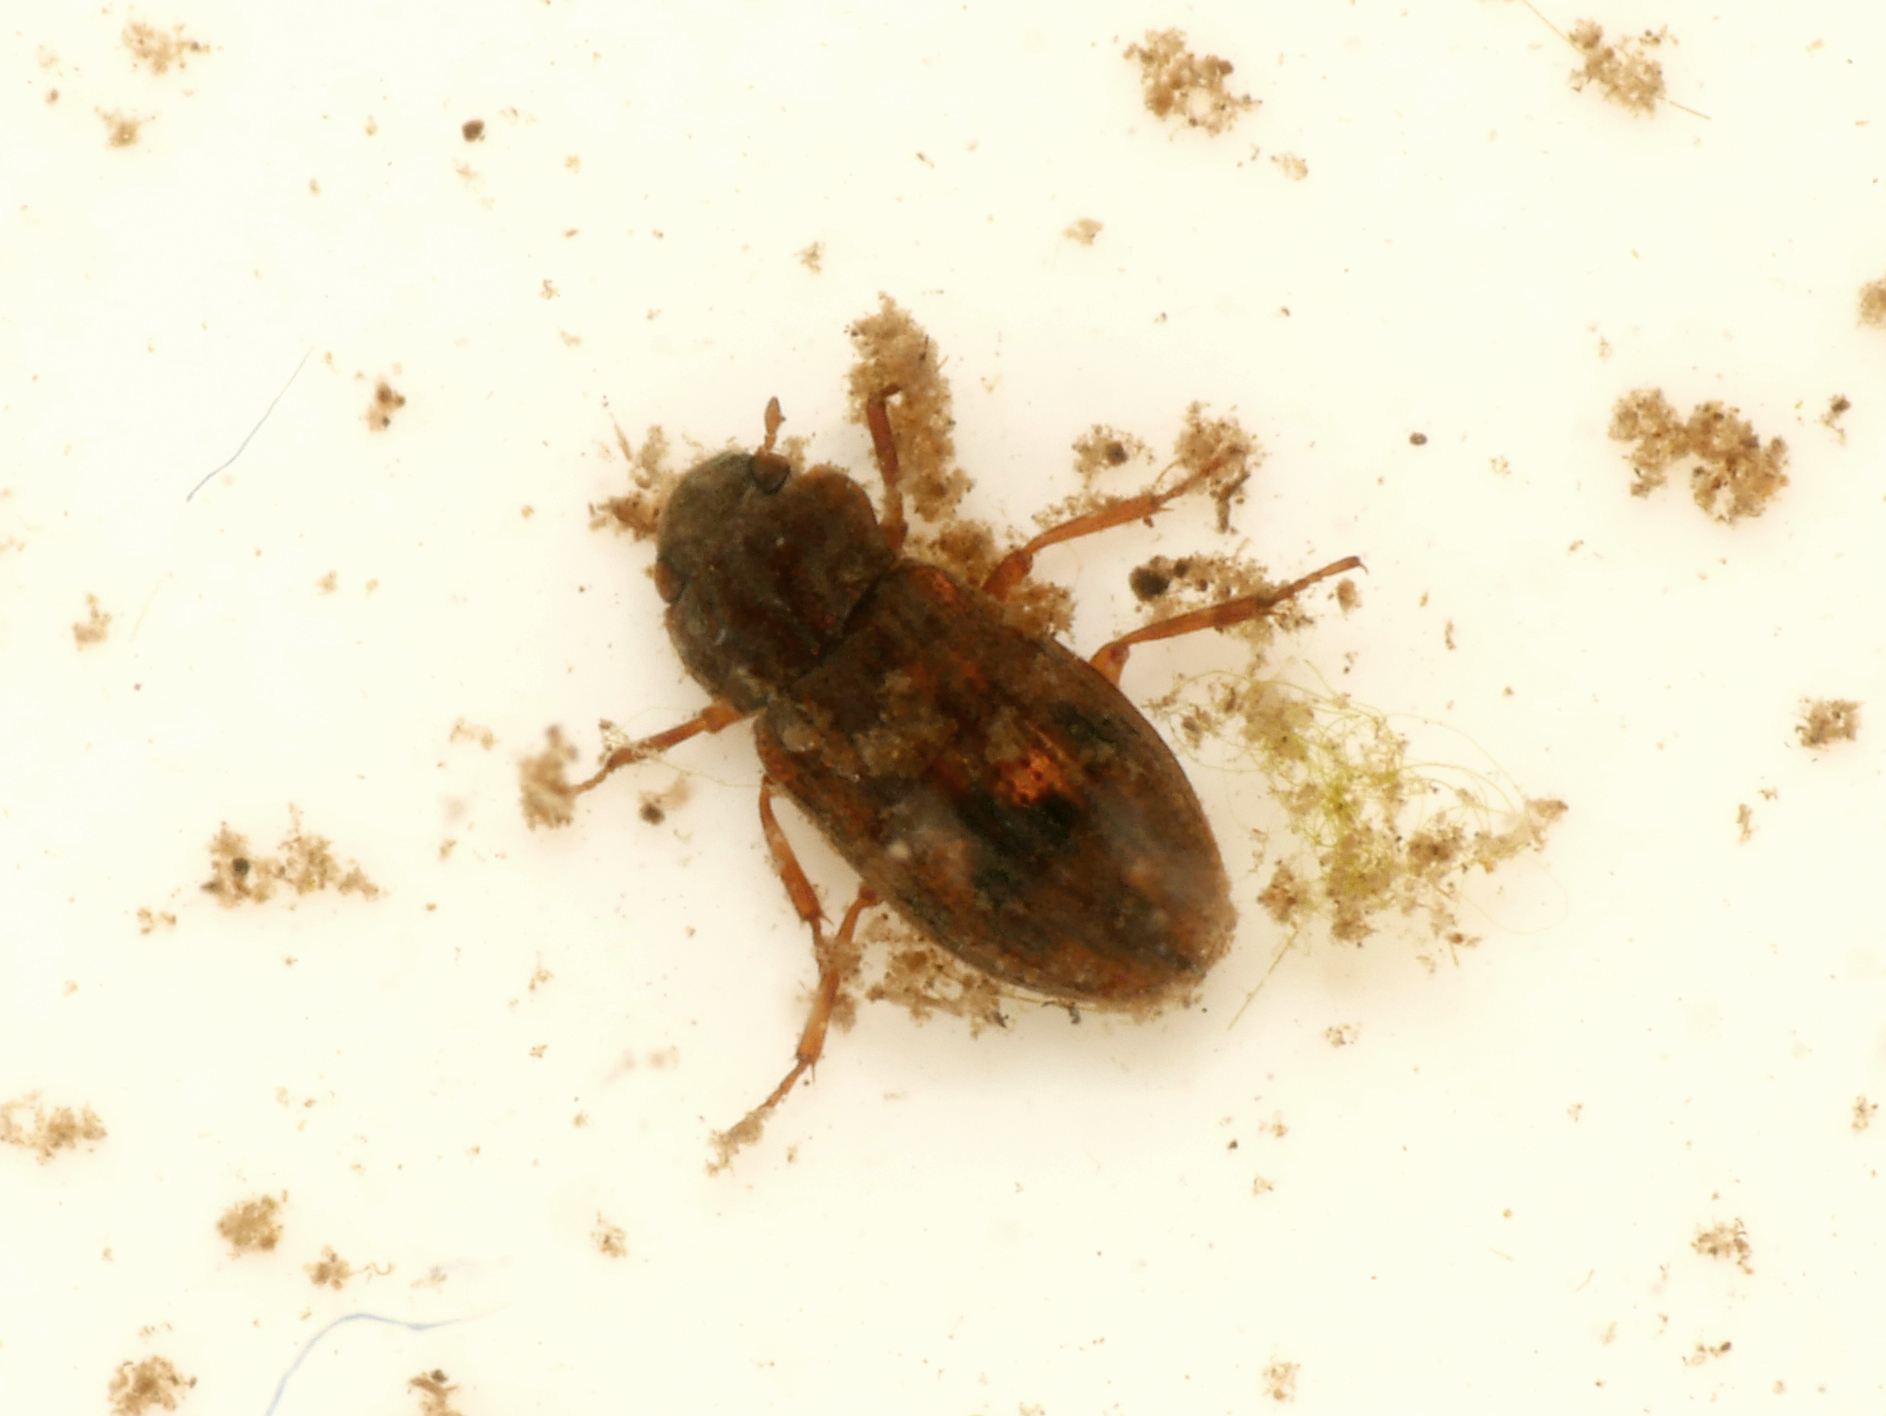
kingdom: Animalia
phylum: Arthropoda
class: Insecta
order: Coleoptera
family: Helophoridae
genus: Helophorus
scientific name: Helophorus brevipalpis
